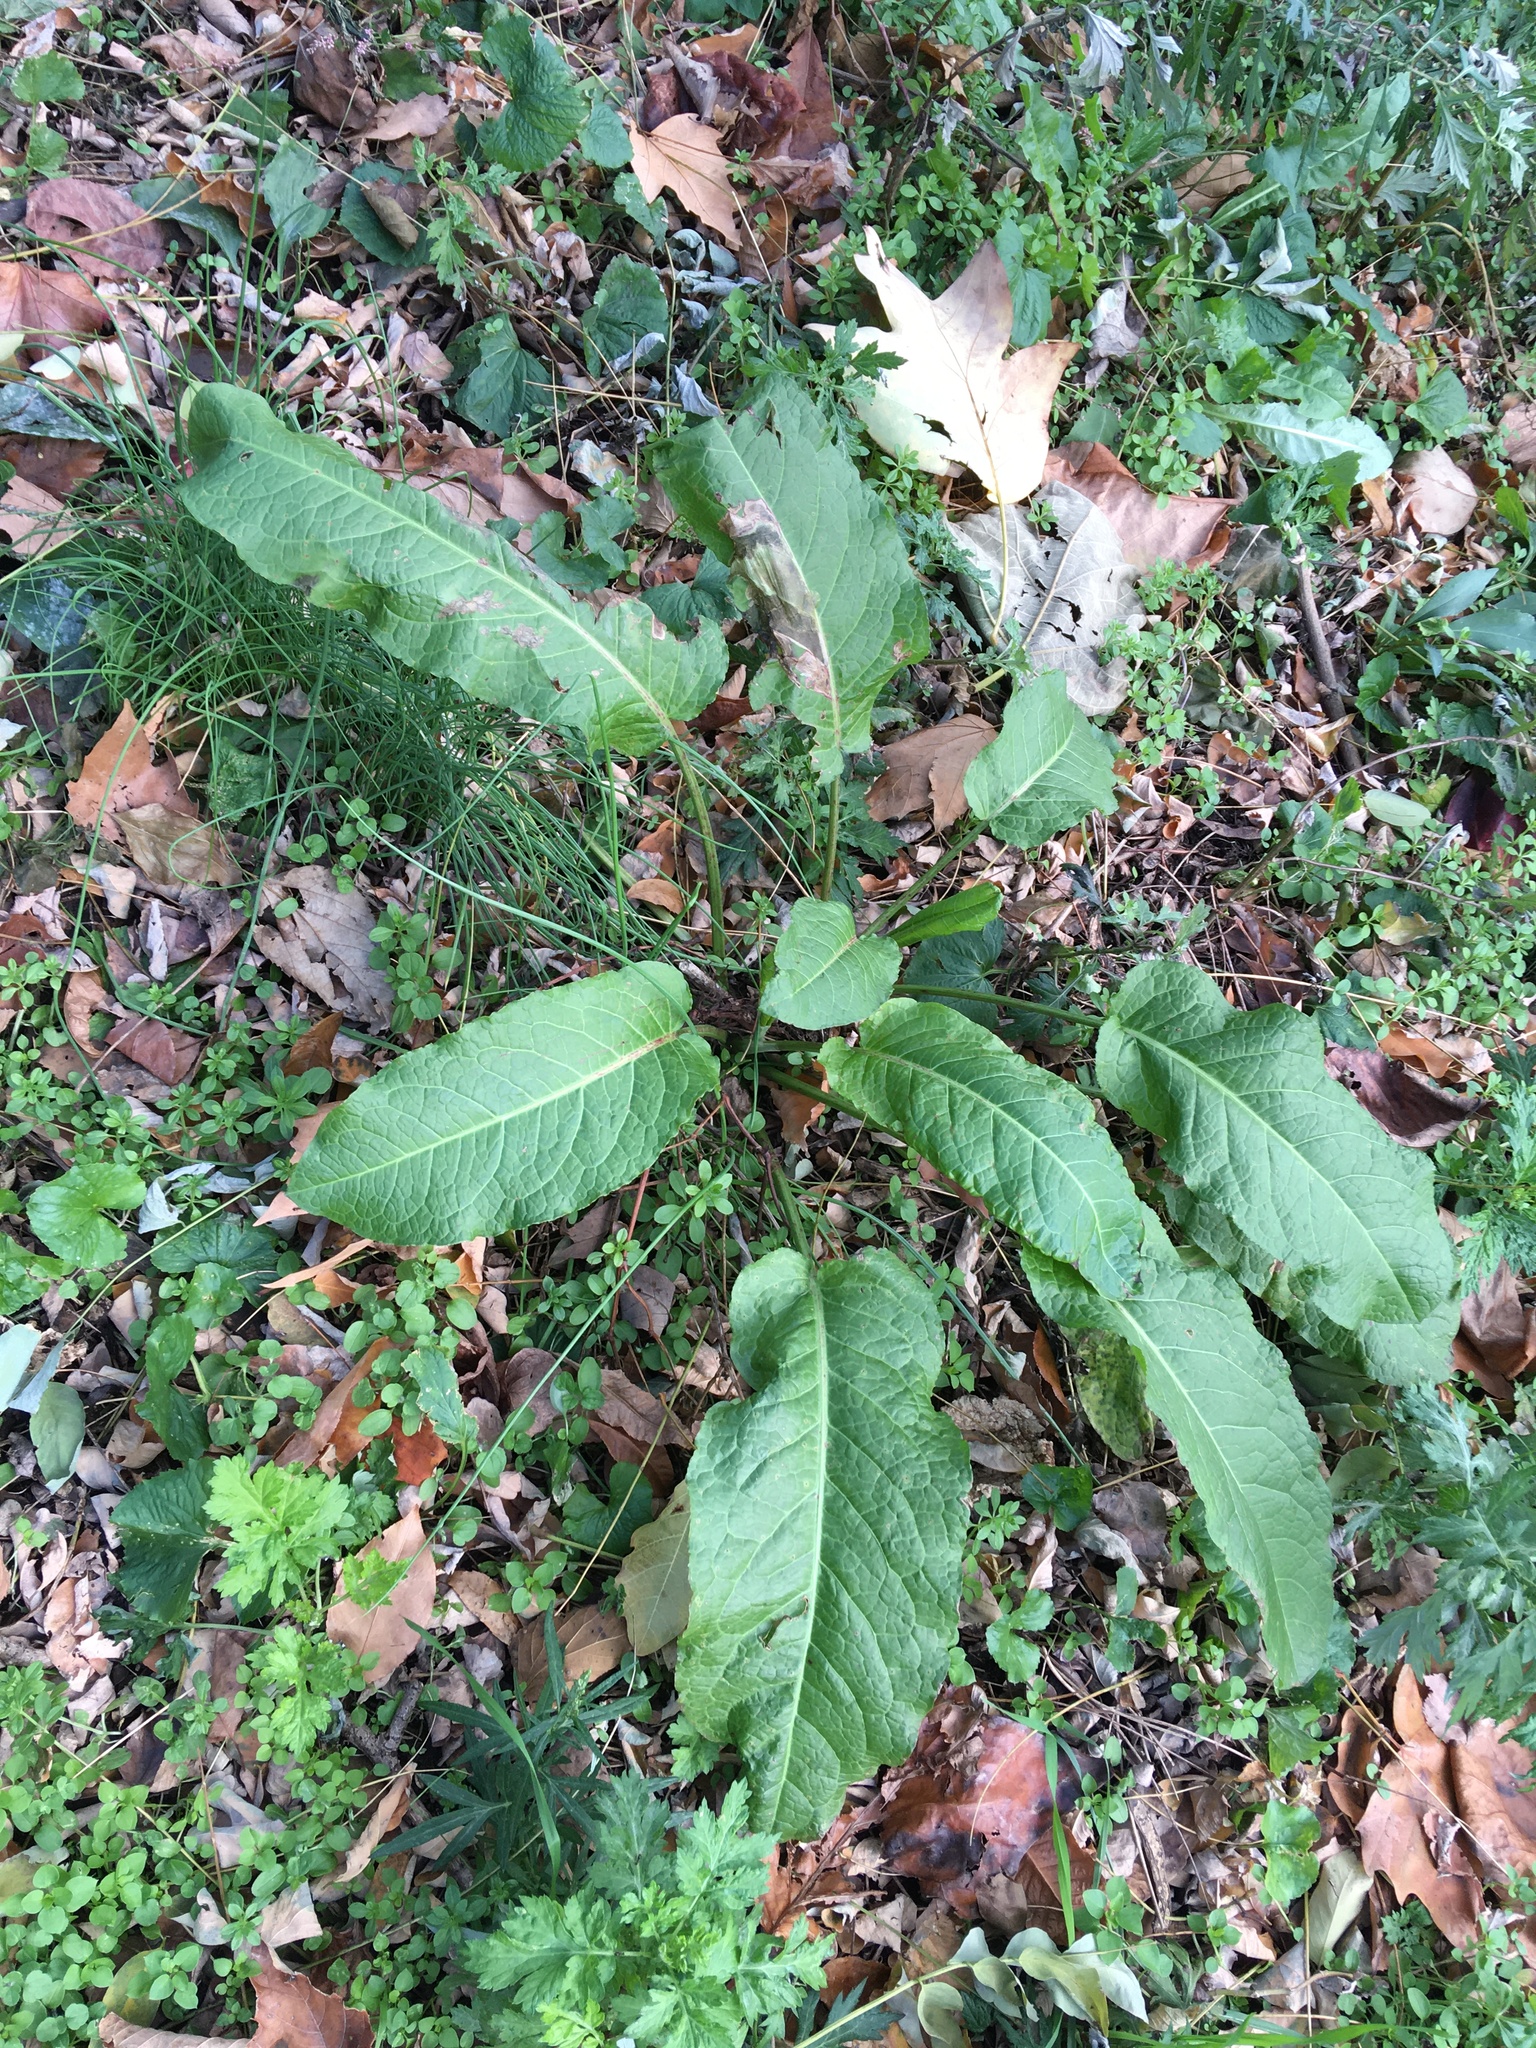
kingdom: Plantae
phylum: Tracheophyta
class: Magnoliopsida
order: Caryophyllales
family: Polygonaceae
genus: Rumex
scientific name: Rumex obtusifolius
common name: Bitter dock
